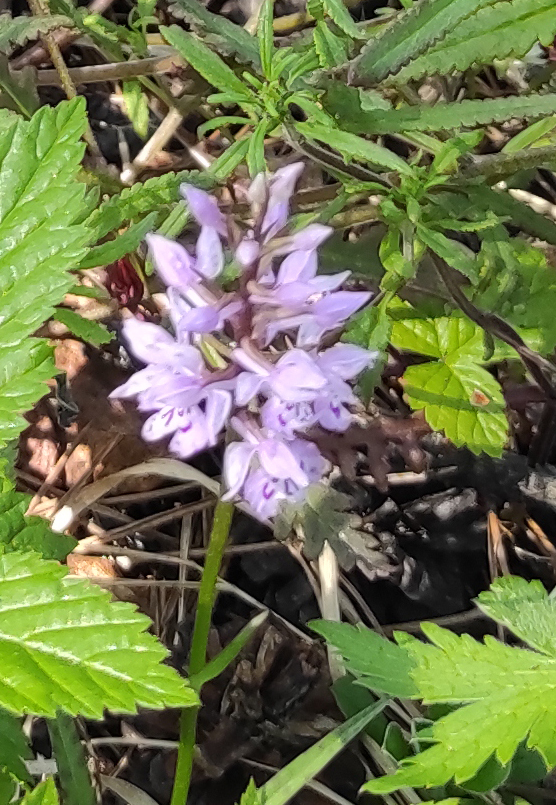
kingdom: Plantae
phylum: Tracheophyta
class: Liliopsida
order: Asparagales
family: Orchidaceae
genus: Dactylorhiza
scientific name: Dactylorhiza maculata
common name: Heath spotted-orchid
